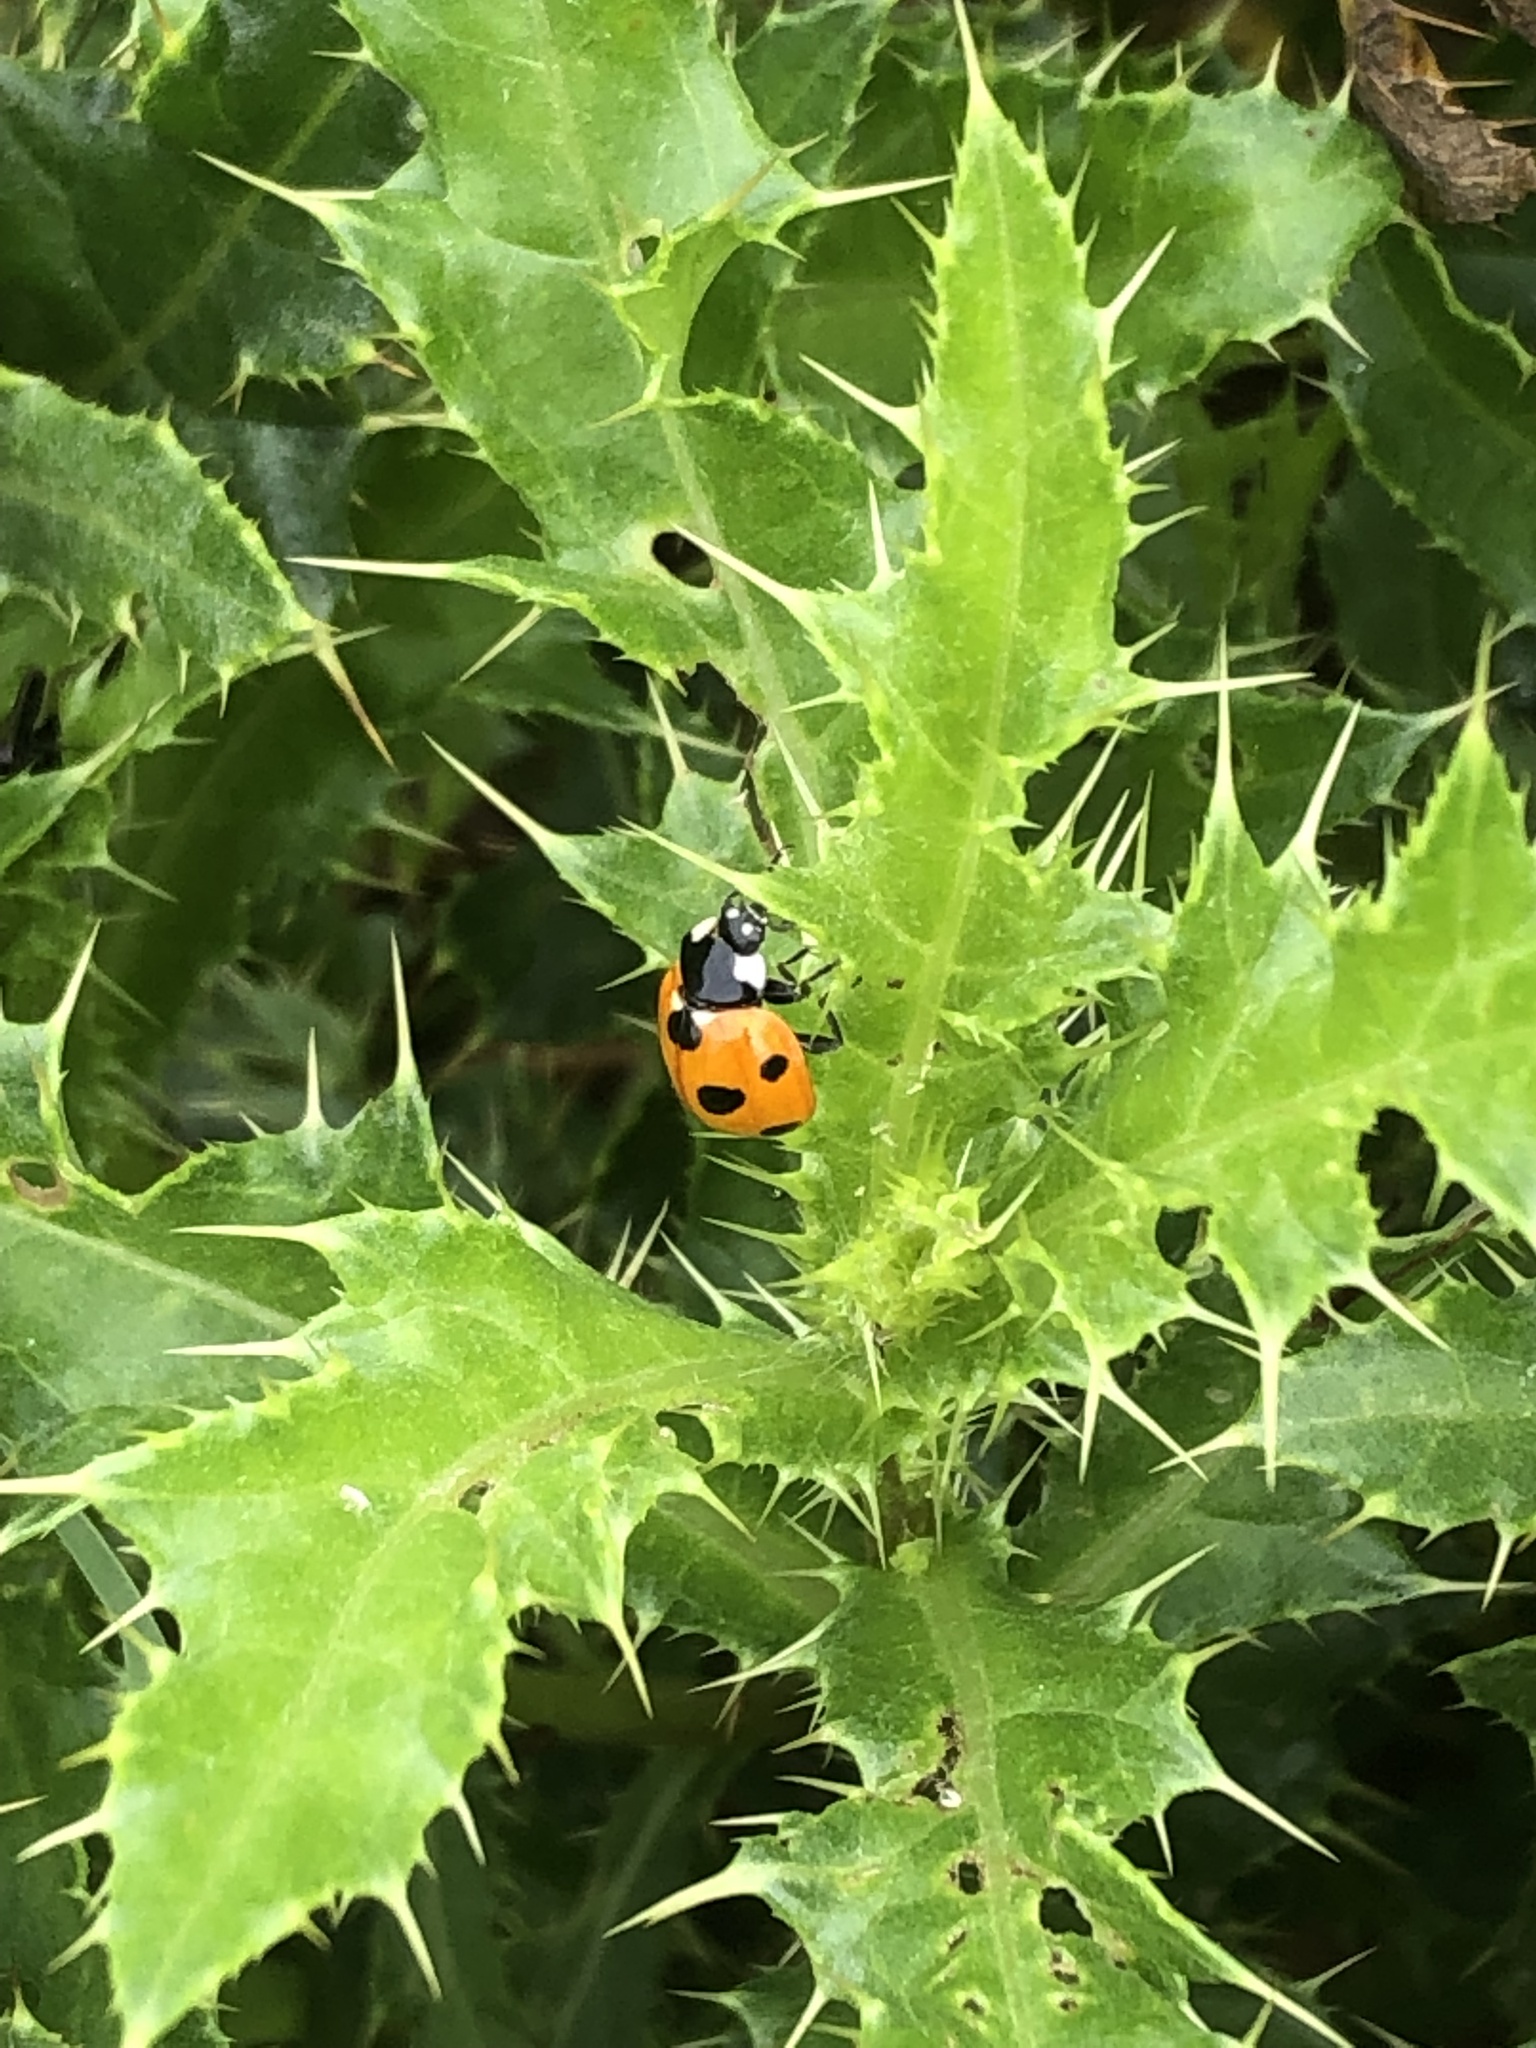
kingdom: Animalia
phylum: Arthropoda
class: Insecta
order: Coleoptera
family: Coccinellidae
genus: Coccinella
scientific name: Coccinella septempunctata
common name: Sevenspotted lady beetle
